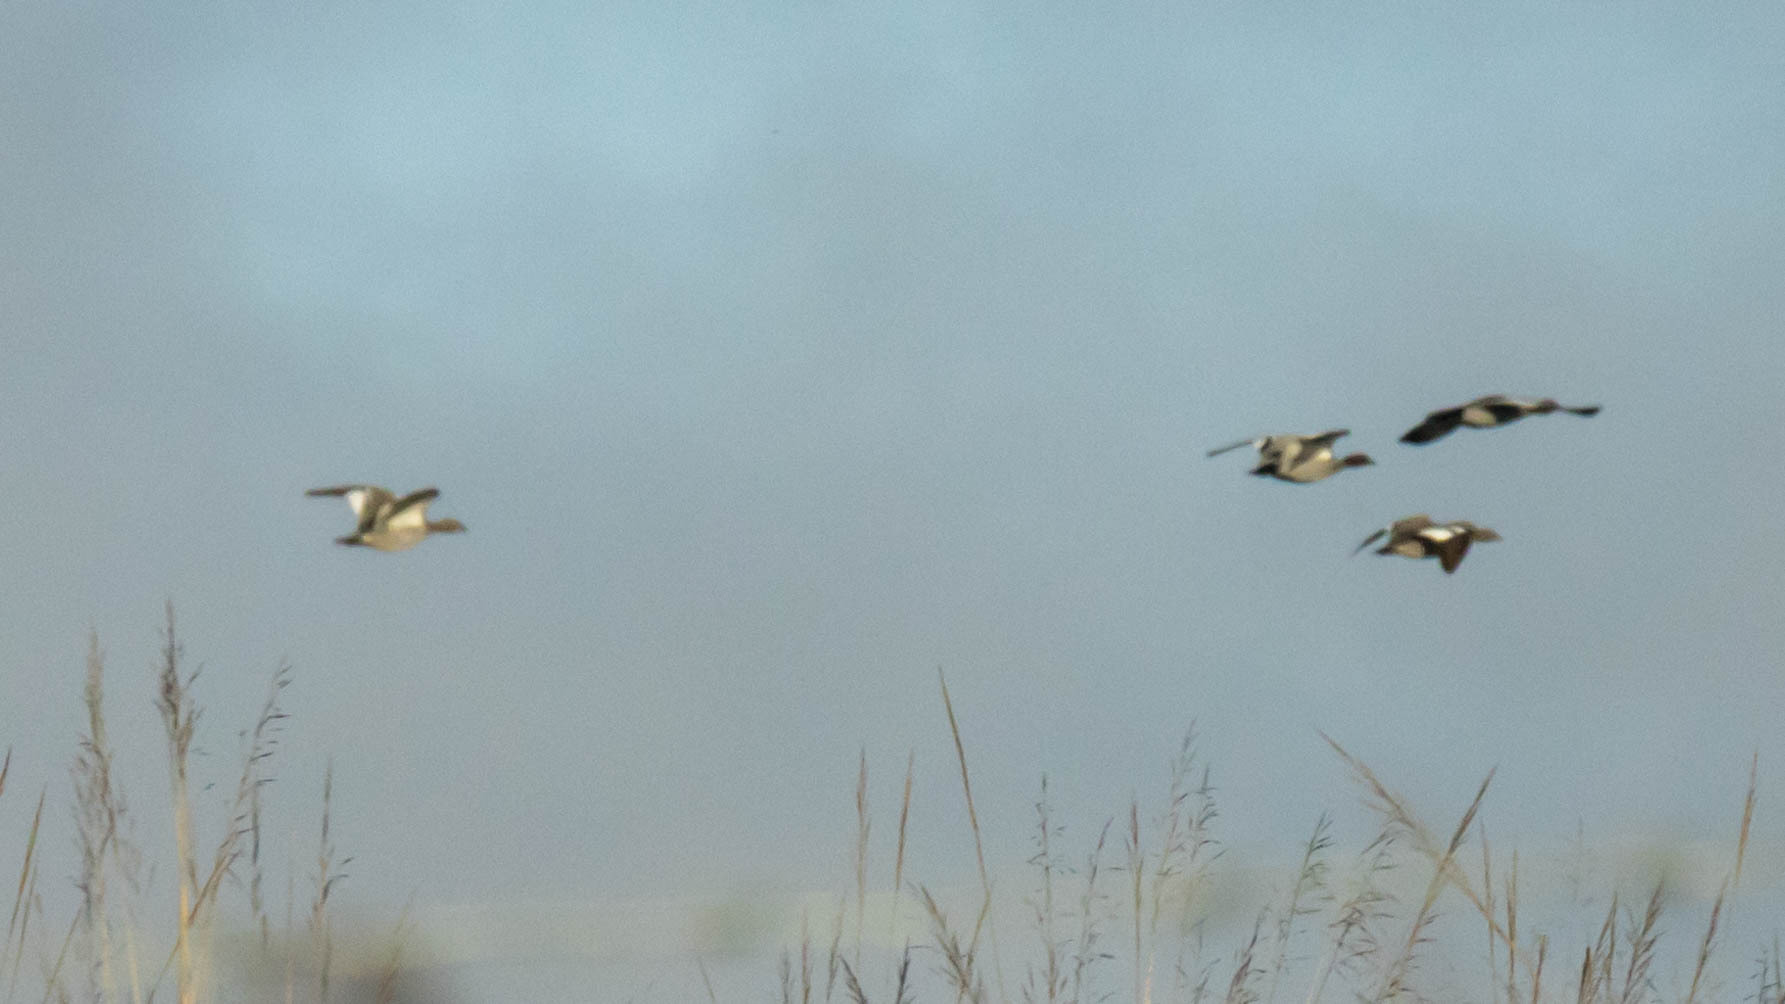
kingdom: Animalia
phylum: Chordata
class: Aves
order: Anseriformes
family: Anatidae
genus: Chenonetta
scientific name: Chenonetta jubata
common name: Maned duck
